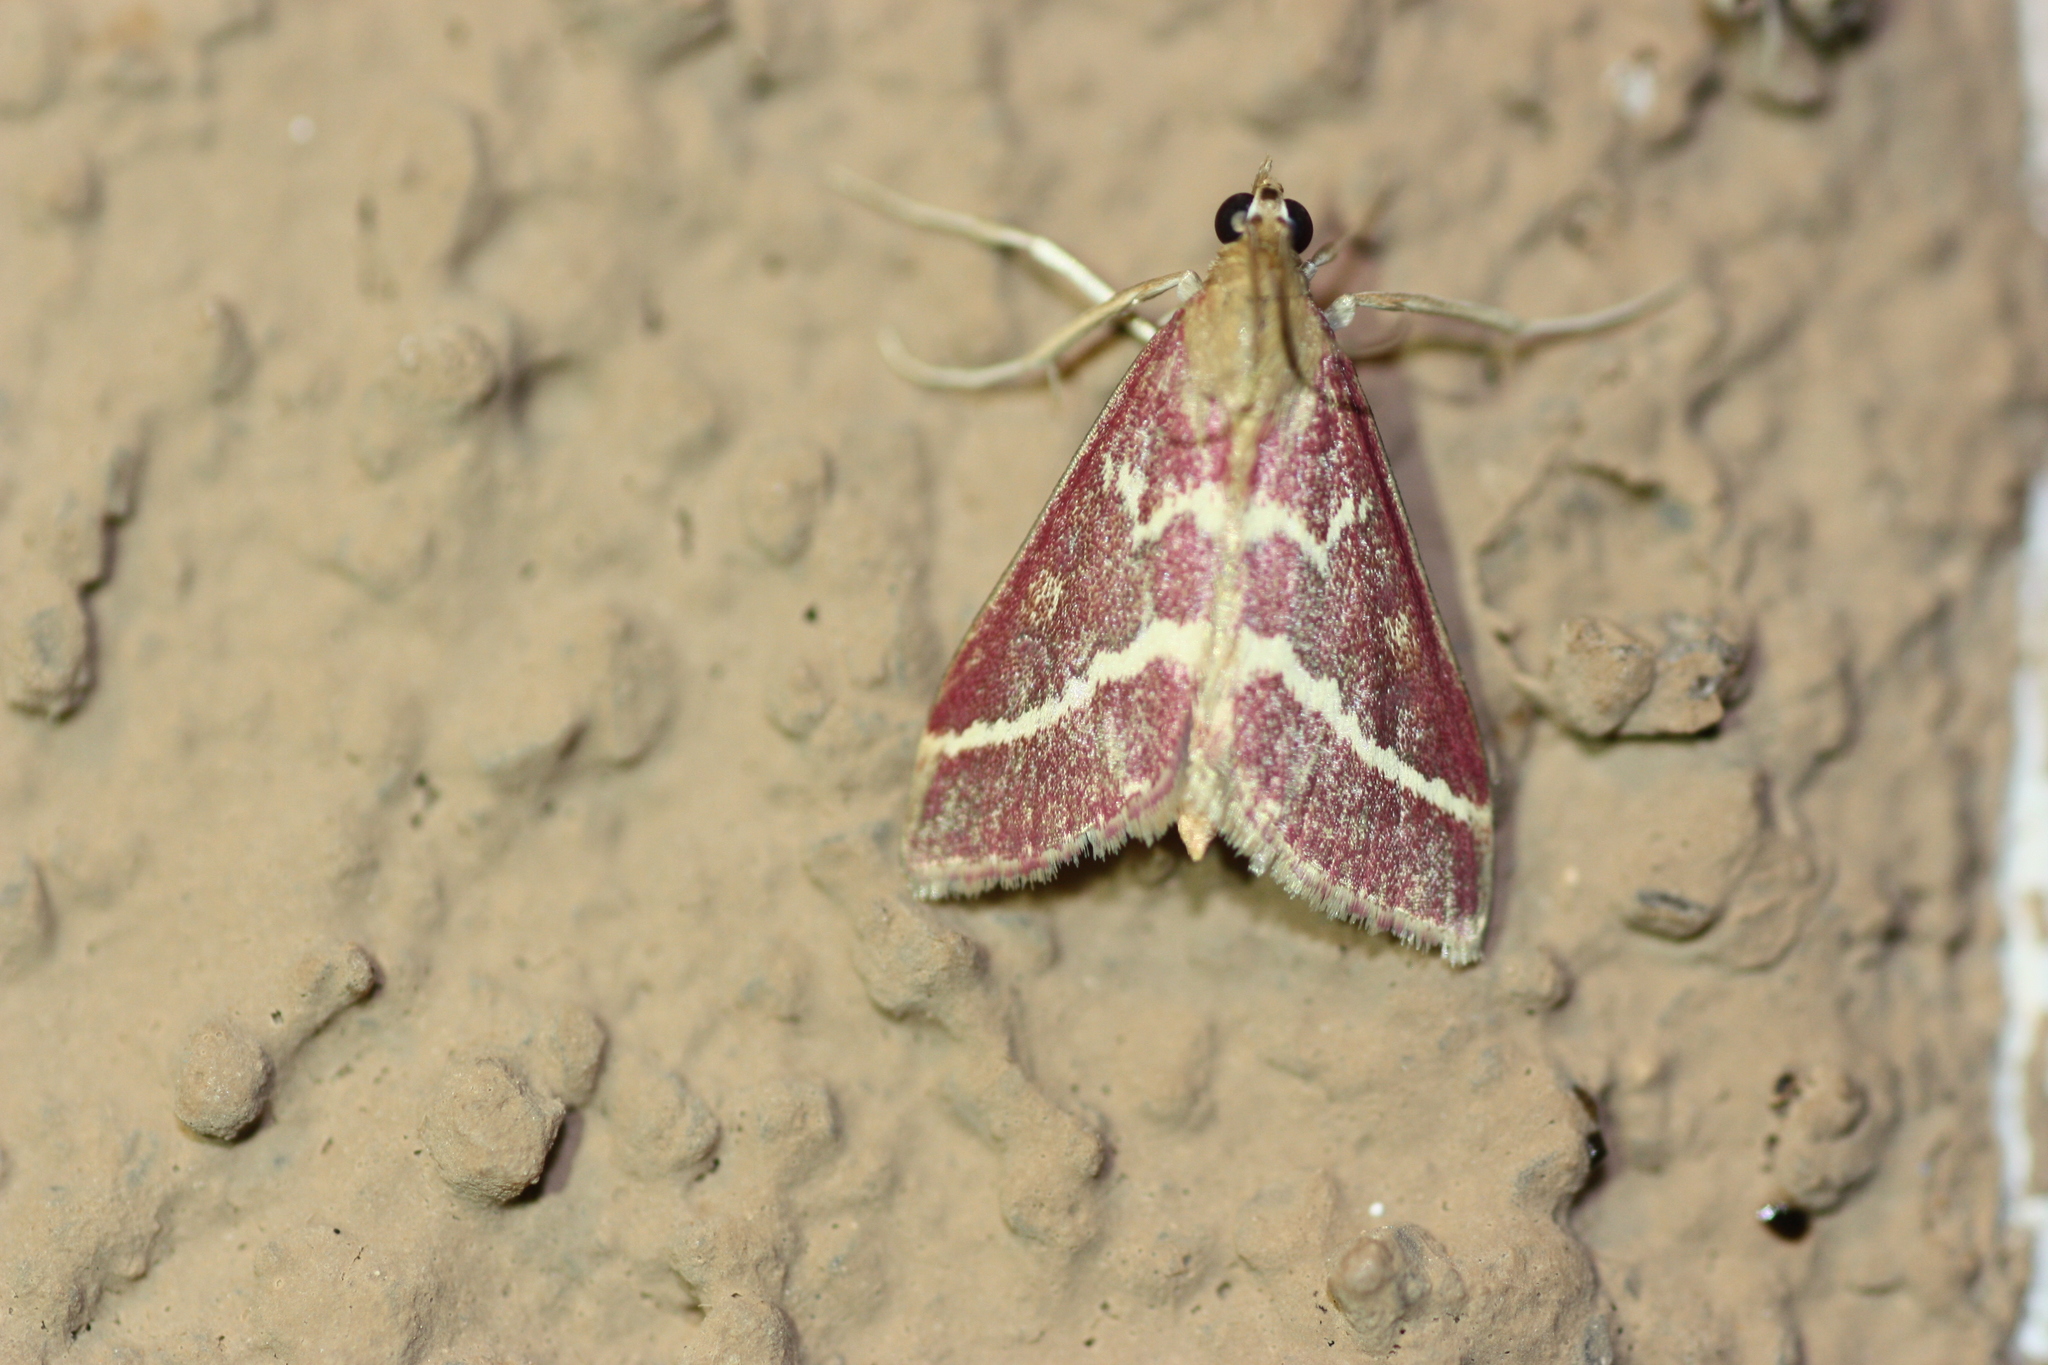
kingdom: Animalia
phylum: Arthropoda
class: Insecta
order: Lepidoptera
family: Crambidae
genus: Pyrausta
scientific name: Pyrausta volupialis
